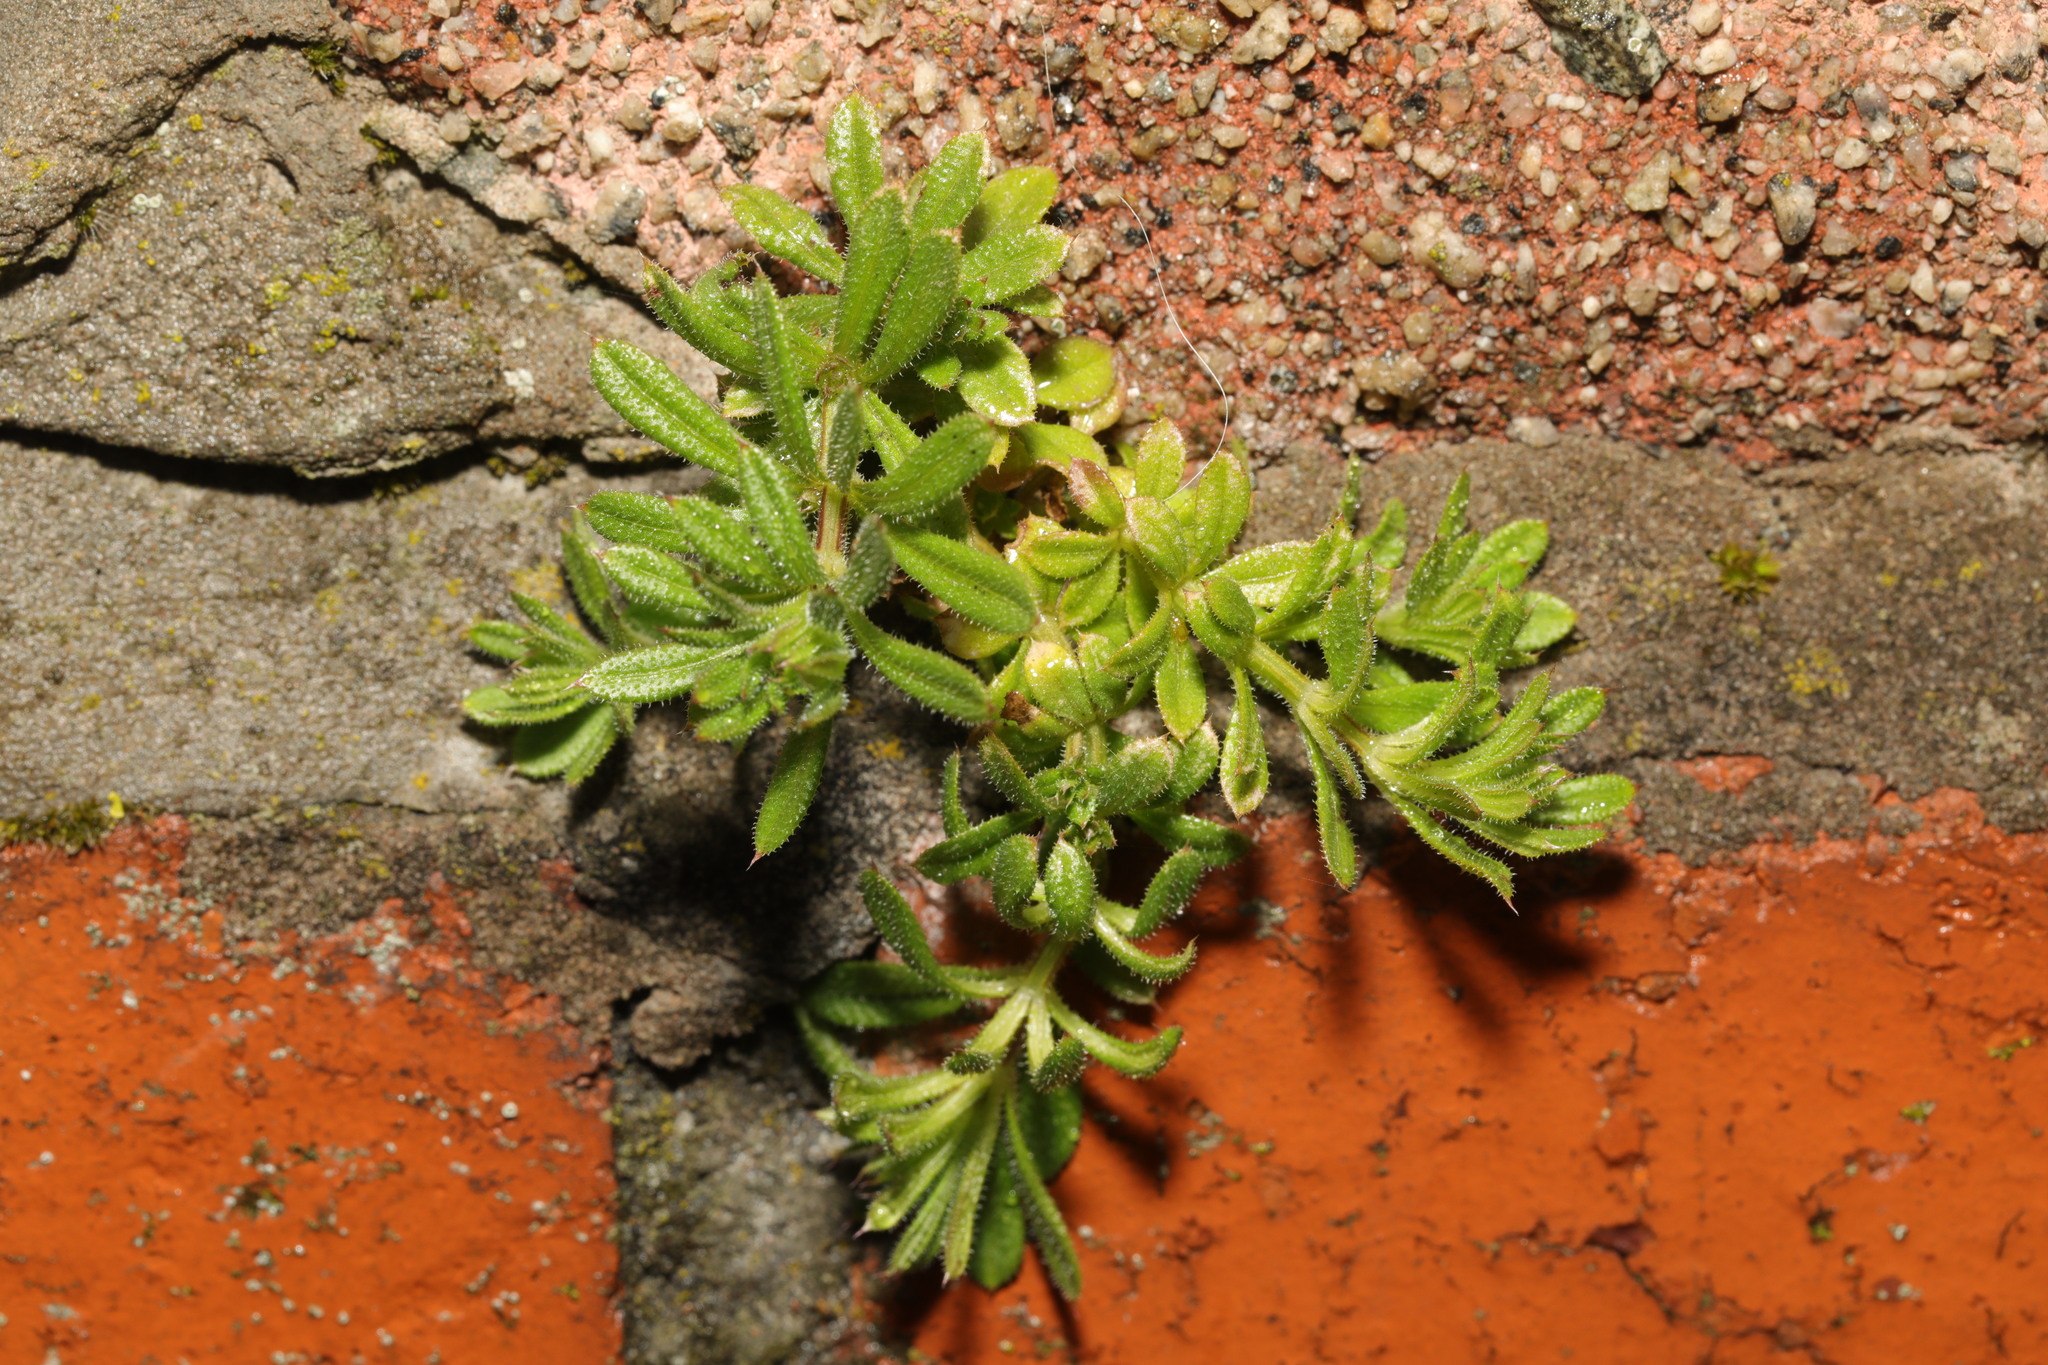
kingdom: Plantae
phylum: Tracheophyta
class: Magnoliopsida
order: Gentianales
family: Rubiaceae
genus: Galium
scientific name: Galium aparine
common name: Cleavers
